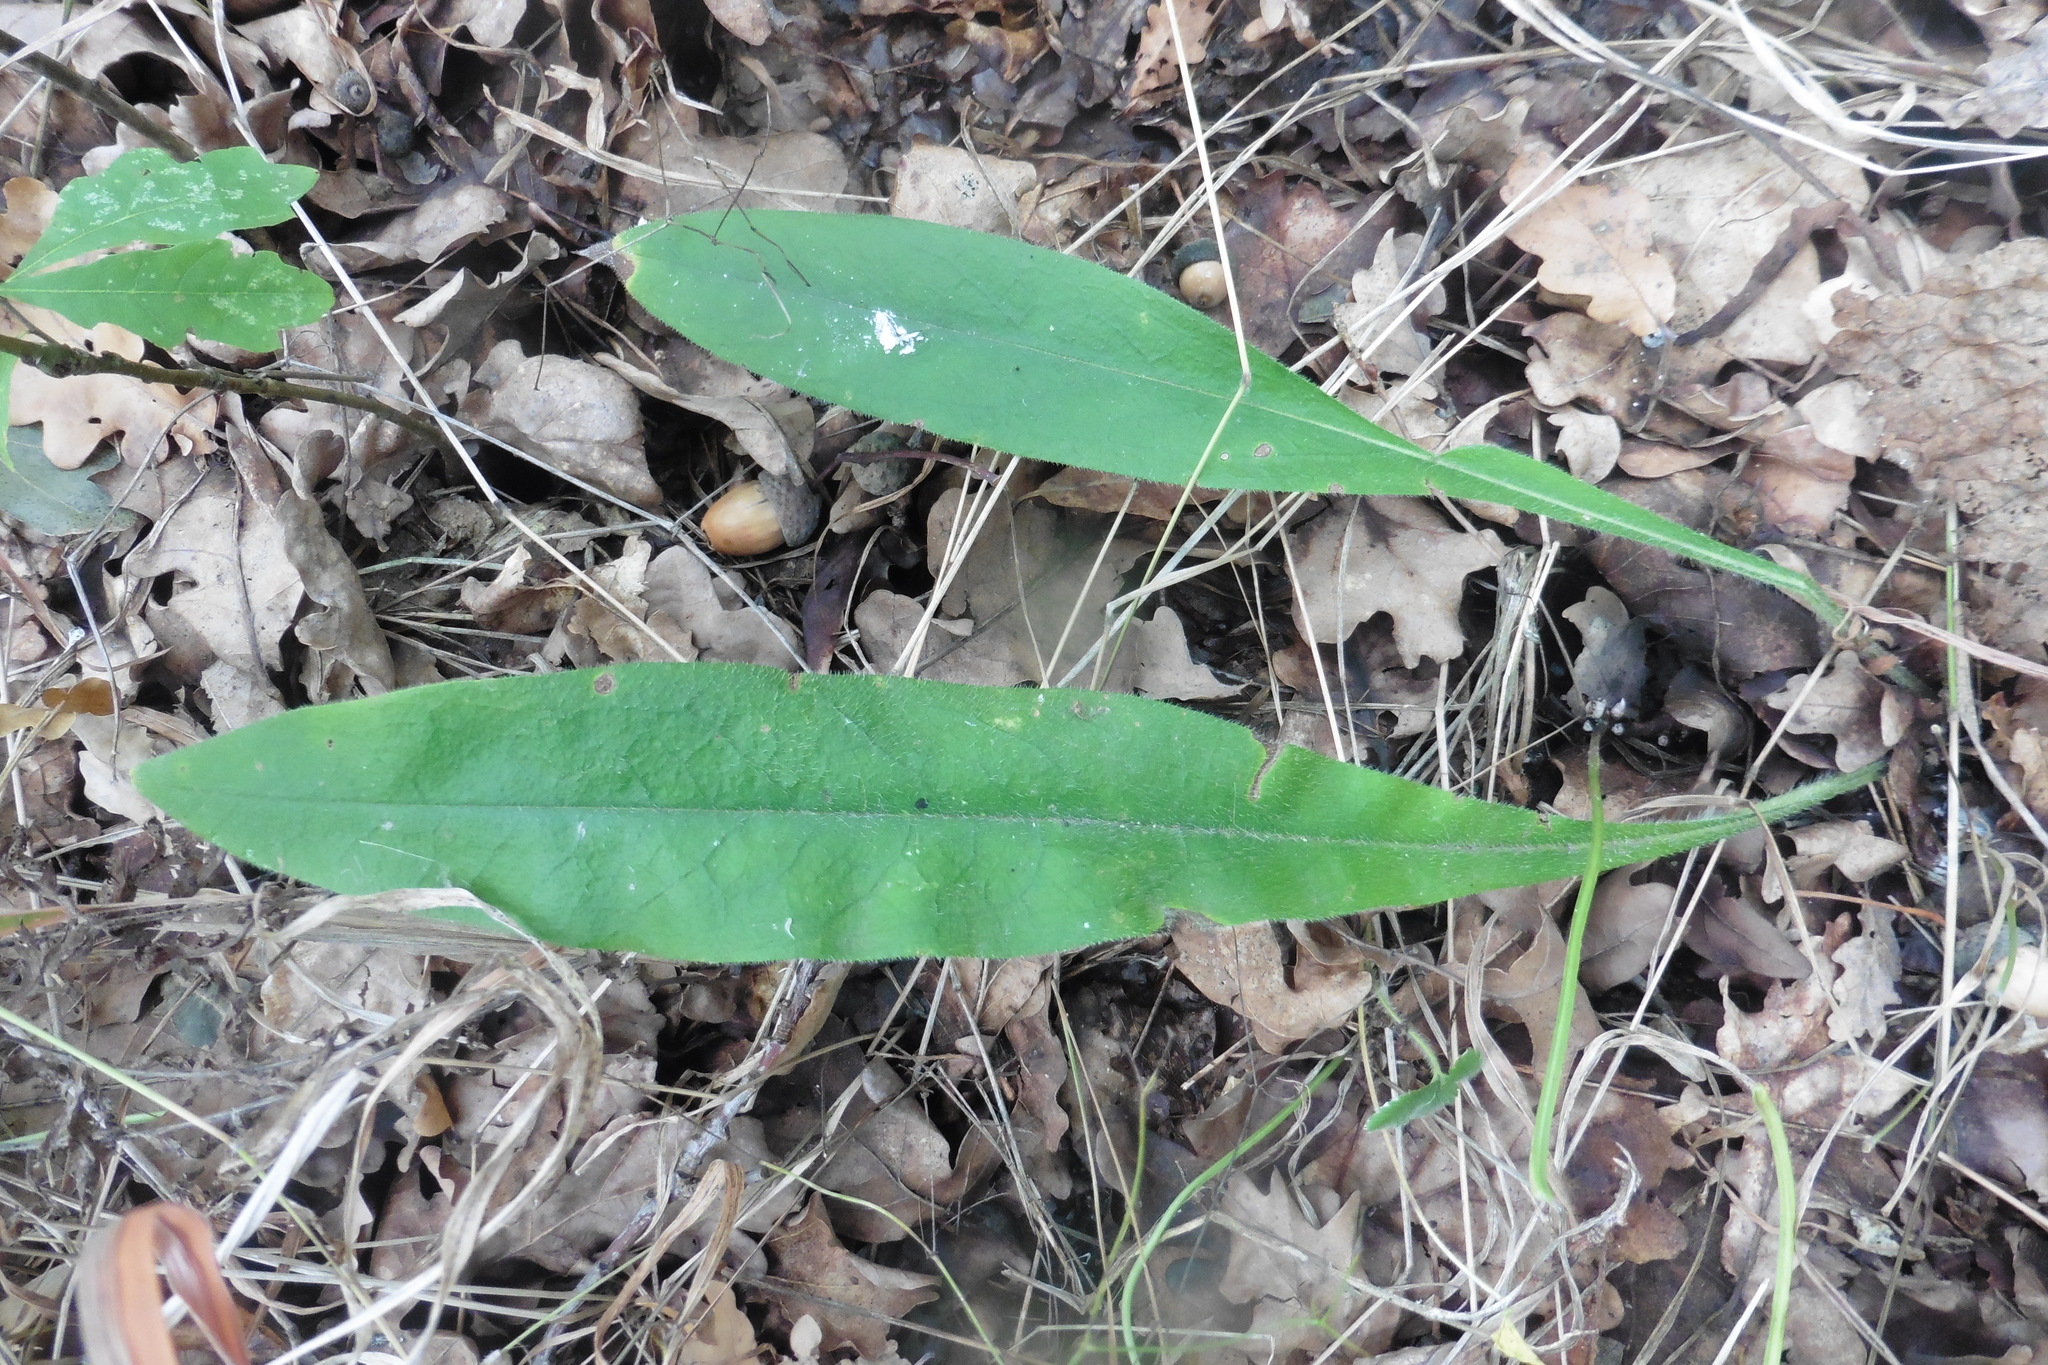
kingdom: Plantae
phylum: Tracheophyta
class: Magnoliopsida
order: Boraginales
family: Boraginaceae
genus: Pulmonaria
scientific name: Pulmonaria angustifolia
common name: Blue cowslip
